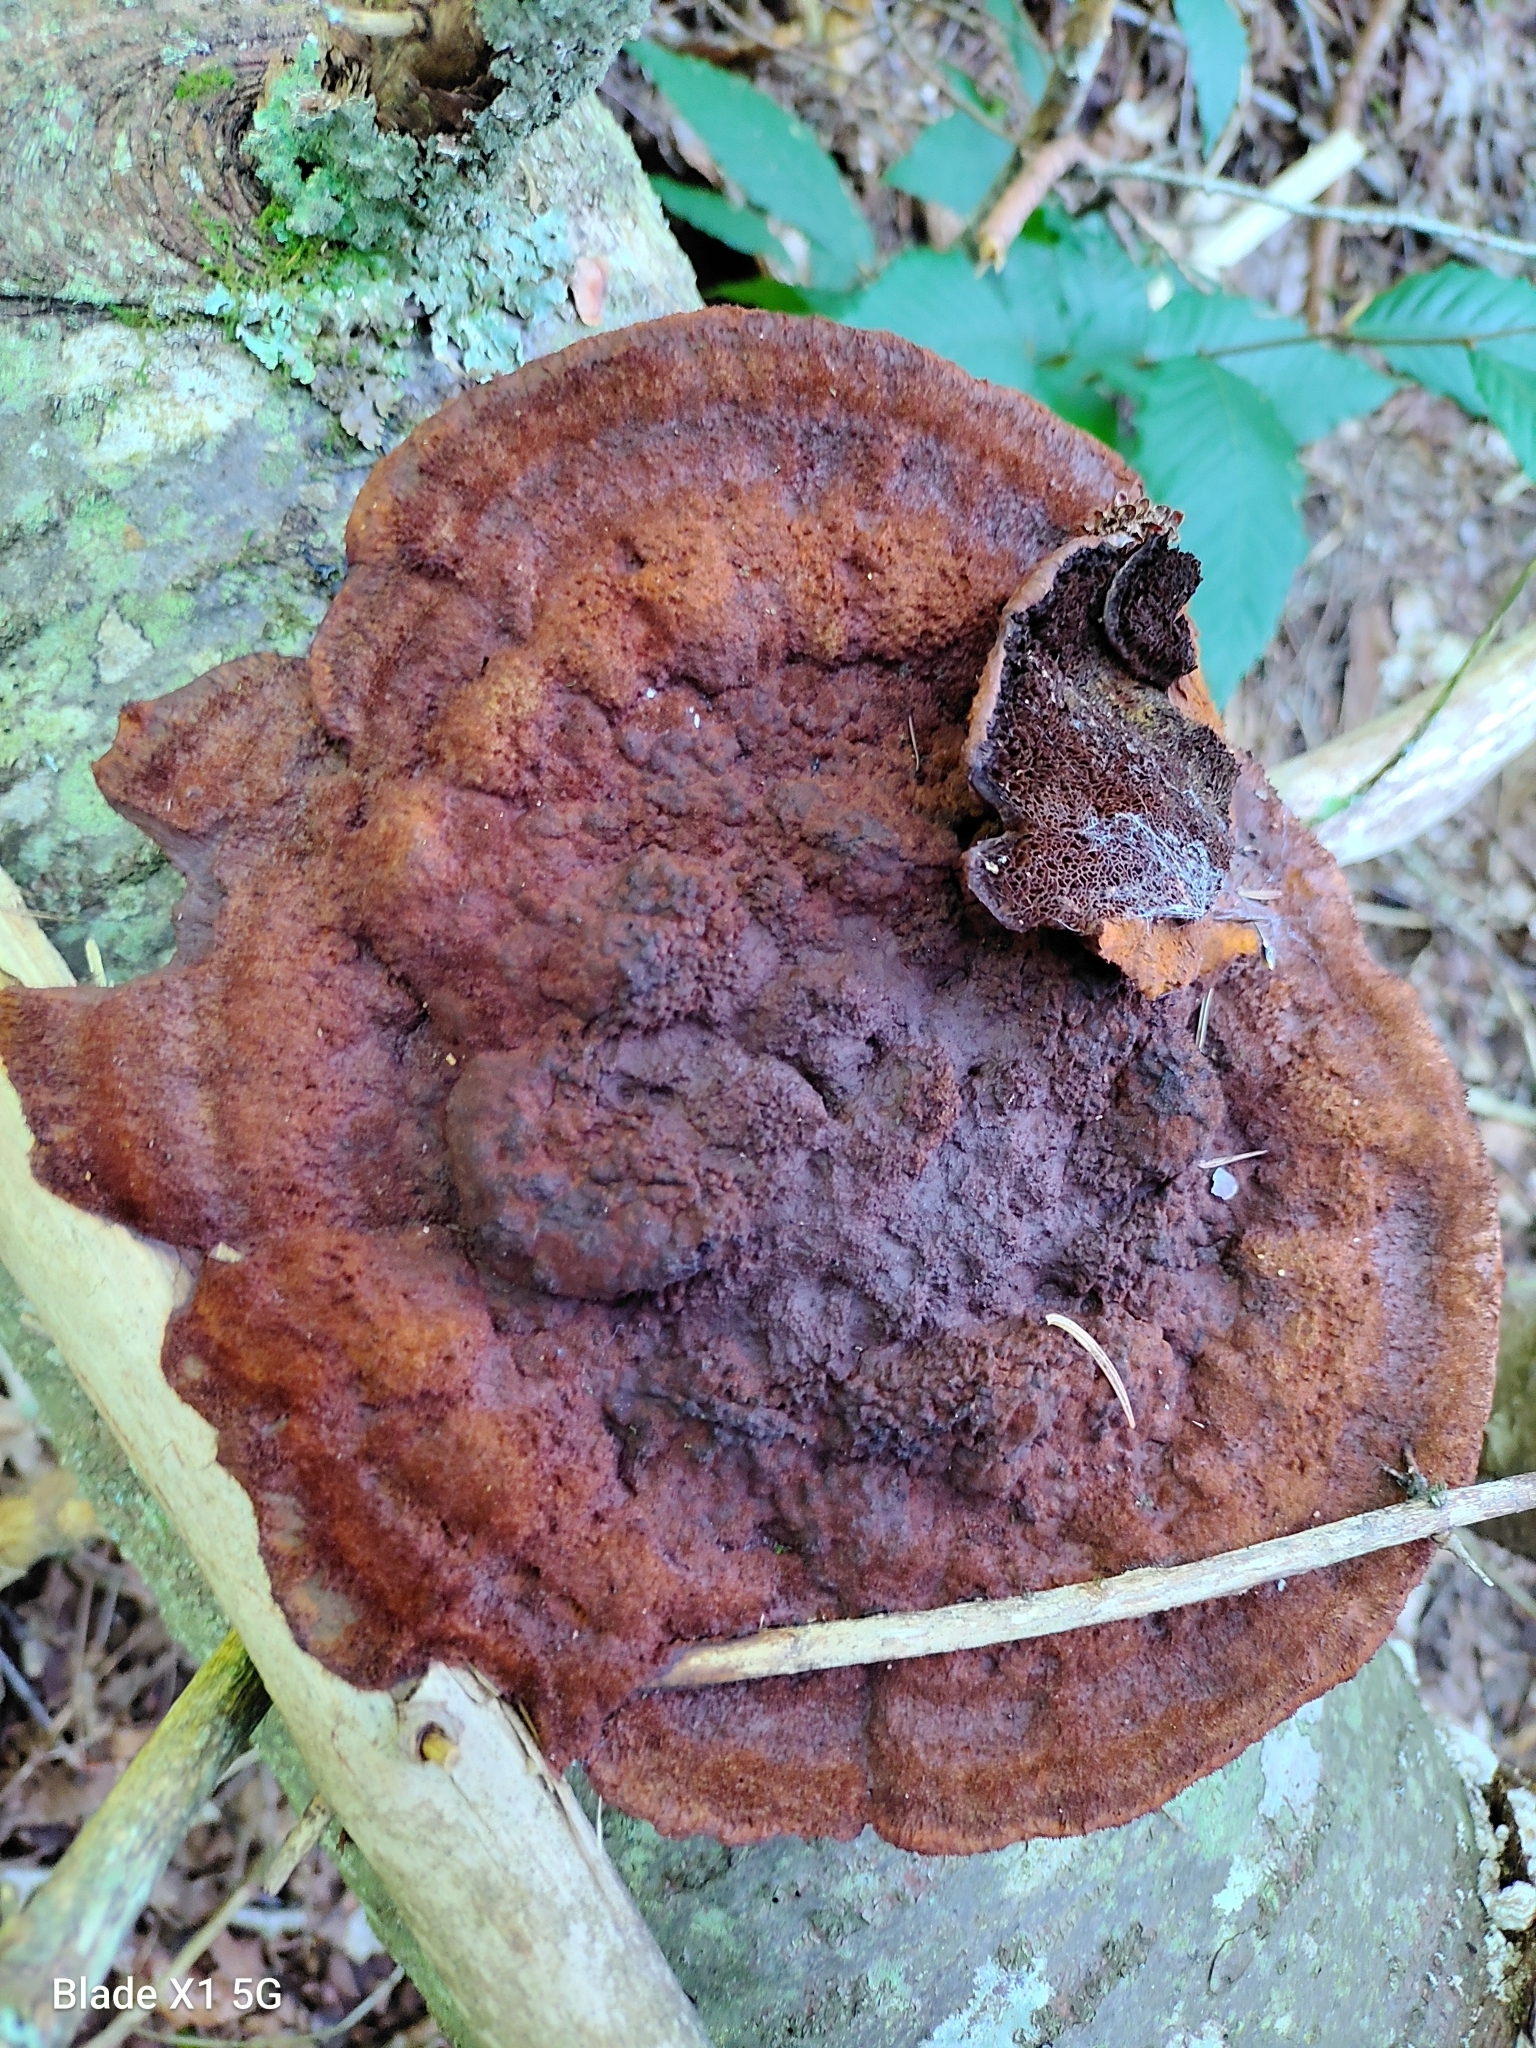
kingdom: Fungi
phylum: Basidiomycota
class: Agaricomycetes
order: Polyporales
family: Laetiporaceae
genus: Phaeolus
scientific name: Phaeolus schweinitzii
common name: Dyer's mazegill
